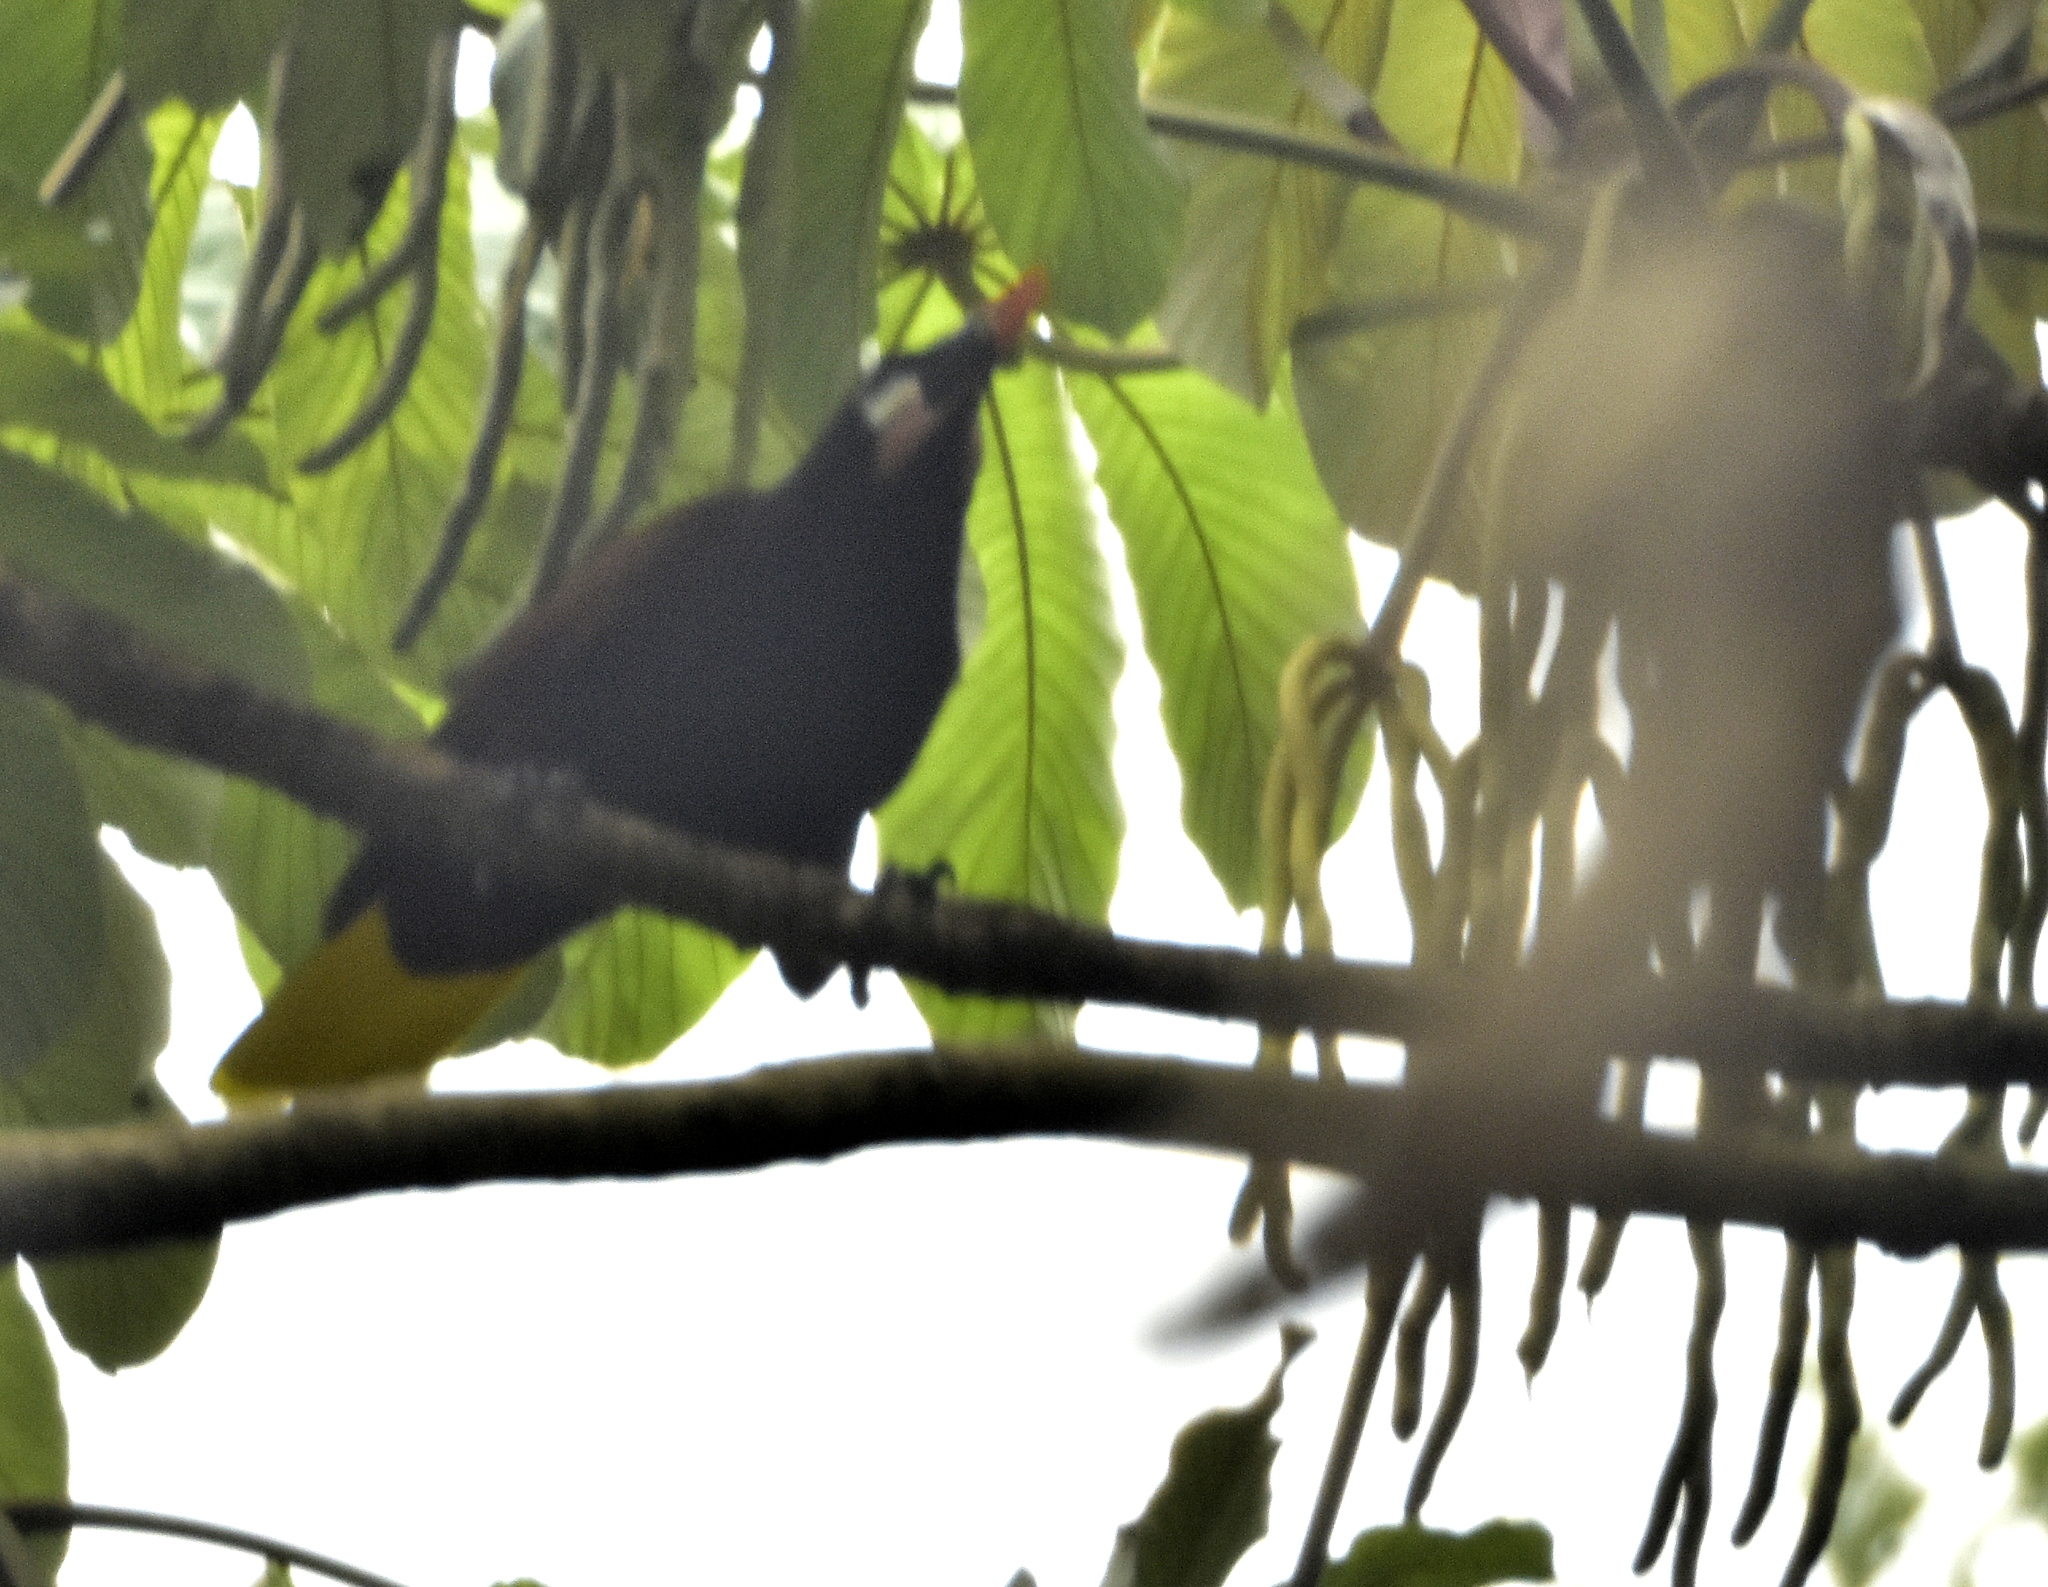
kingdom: Animalia
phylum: Chordata
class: Aves
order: Passeriformes
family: Icteridae
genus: Psarocolius
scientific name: Psarocolius montezuma
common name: Montezuma oropendola
